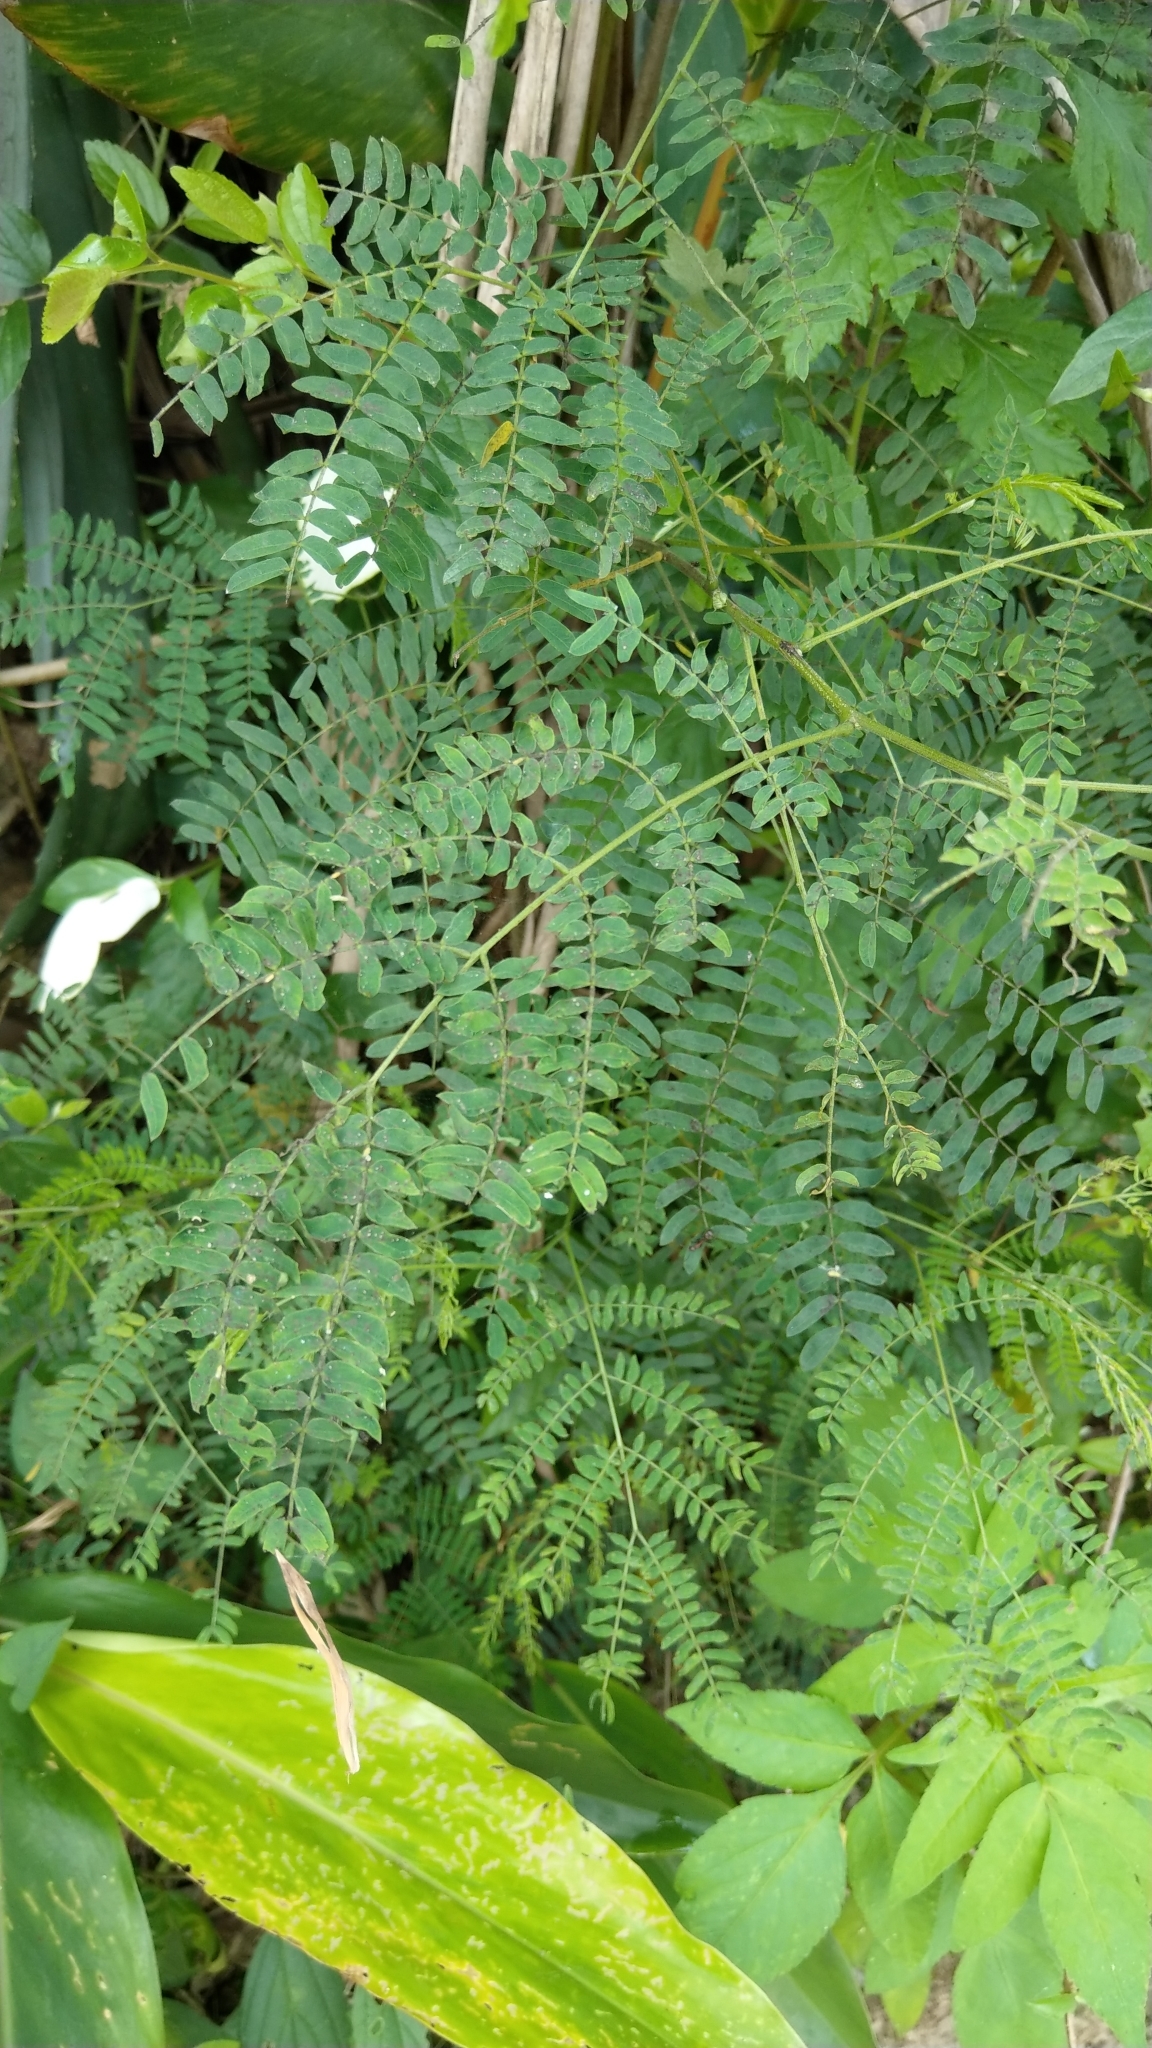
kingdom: Plantae
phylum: Tracheophyta
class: Magnoliopsida
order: Fabales
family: Fabaceae
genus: Leucaena
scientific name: Leucaena leucocephala
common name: White leadtree
